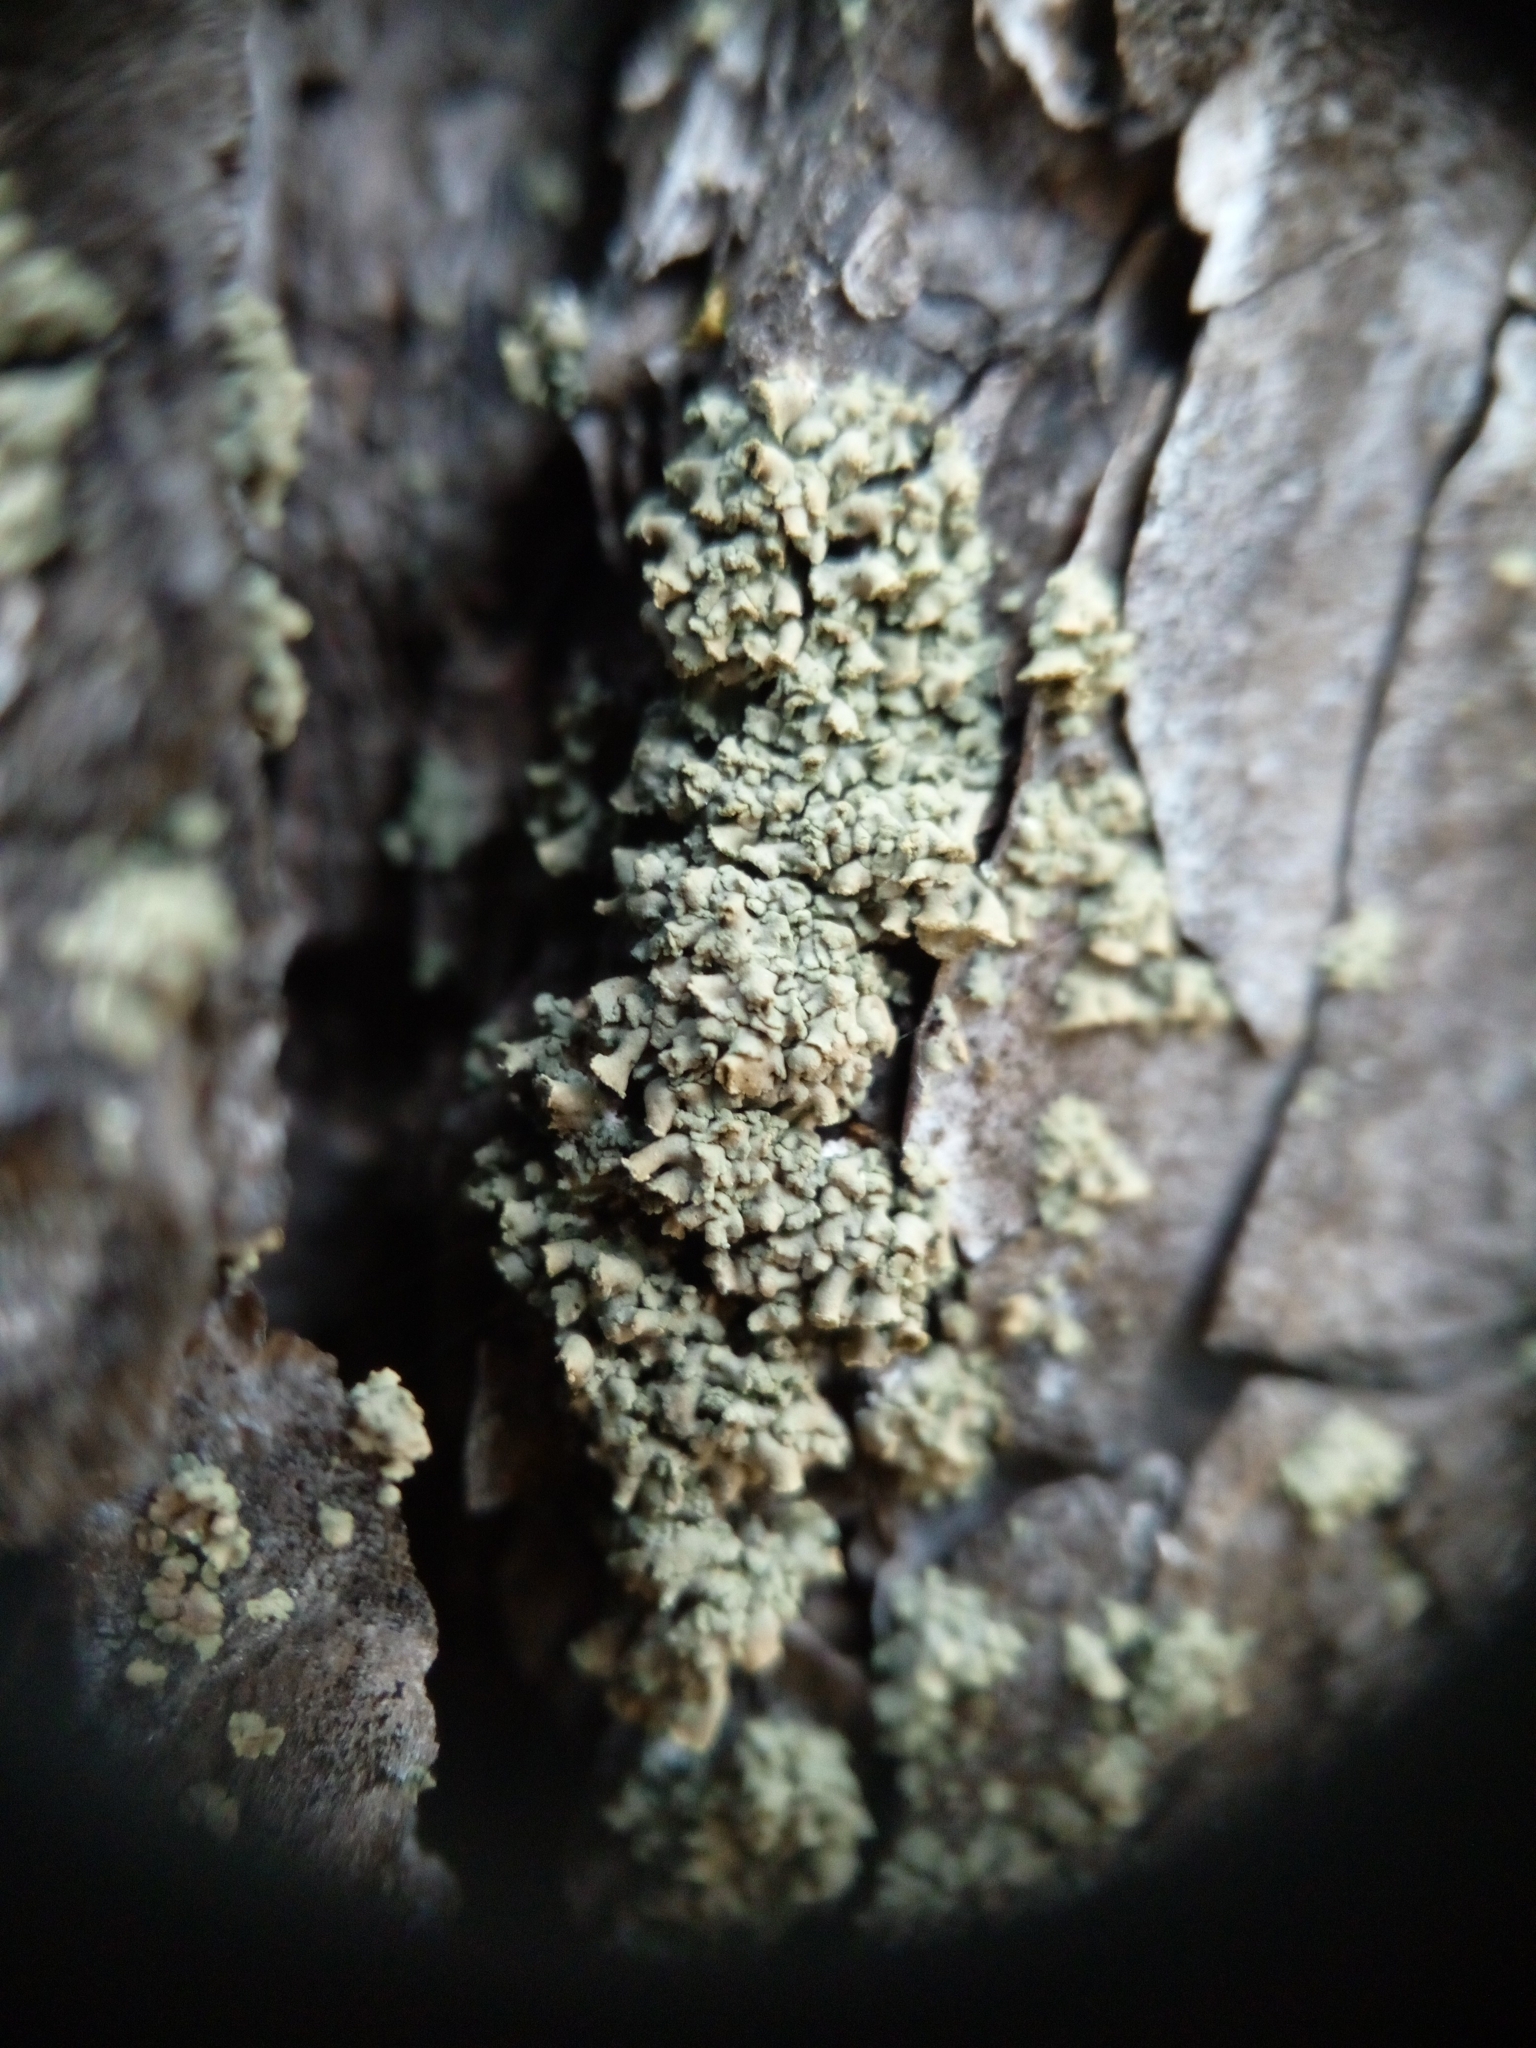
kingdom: Fungi
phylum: Ascomycota
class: Lecanoromycetes
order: Umbilicariales
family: Ophioparmaceae
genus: Hypocenomyce
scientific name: Hypocenomyce scalaris
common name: Common clam lichen
